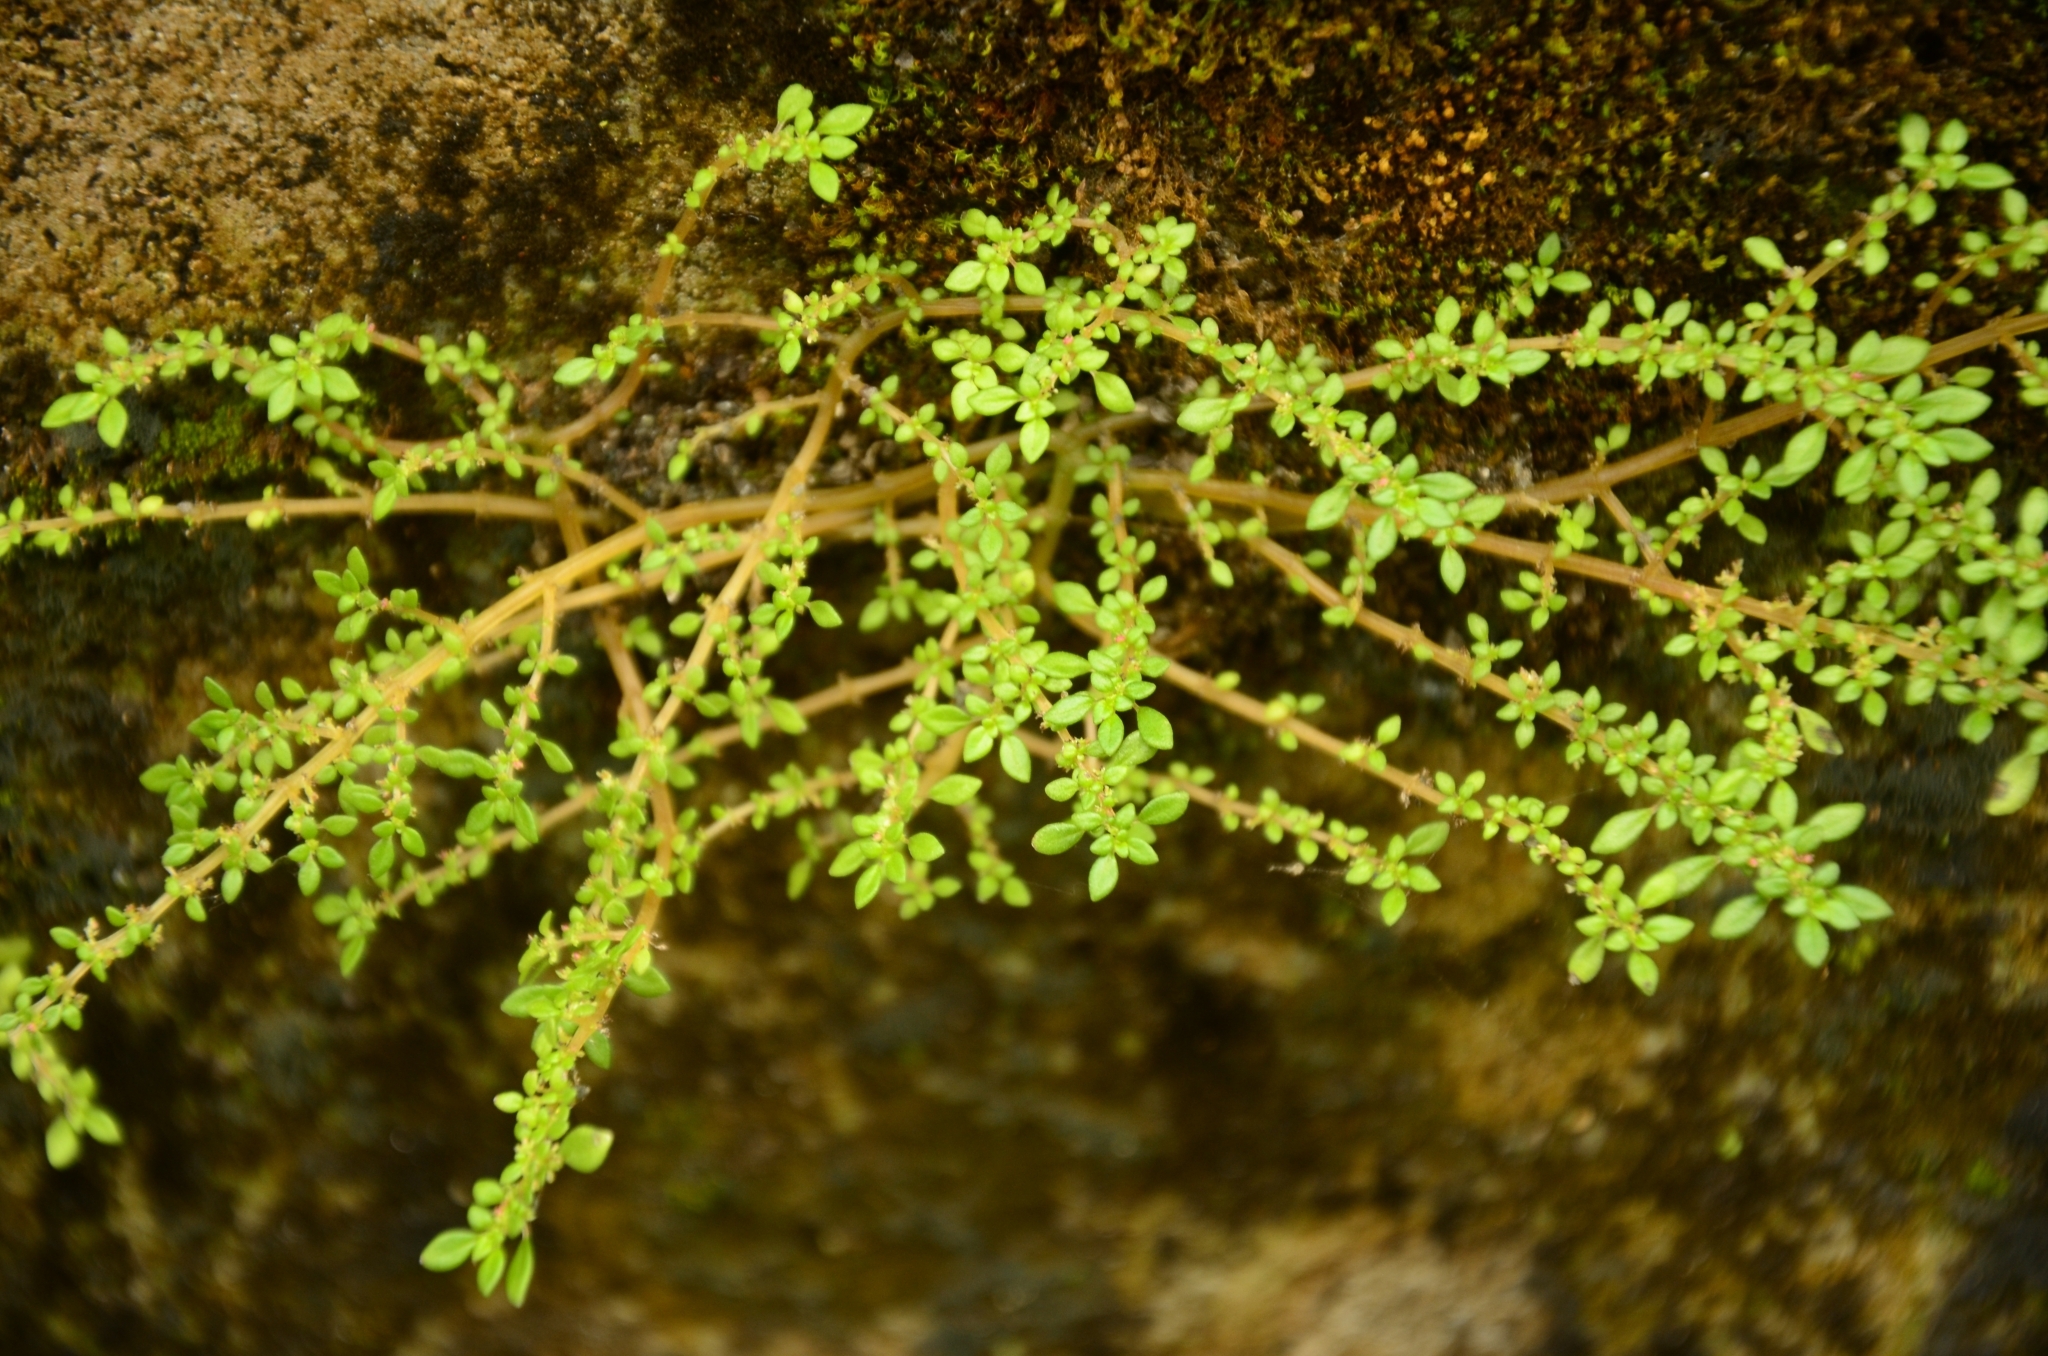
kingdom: Plantae
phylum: Tracheophyta
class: Magnoliopsida
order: Rosales
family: Urticaceae
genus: Pilea
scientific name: Pilea microphylla
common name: Artillery-plant
